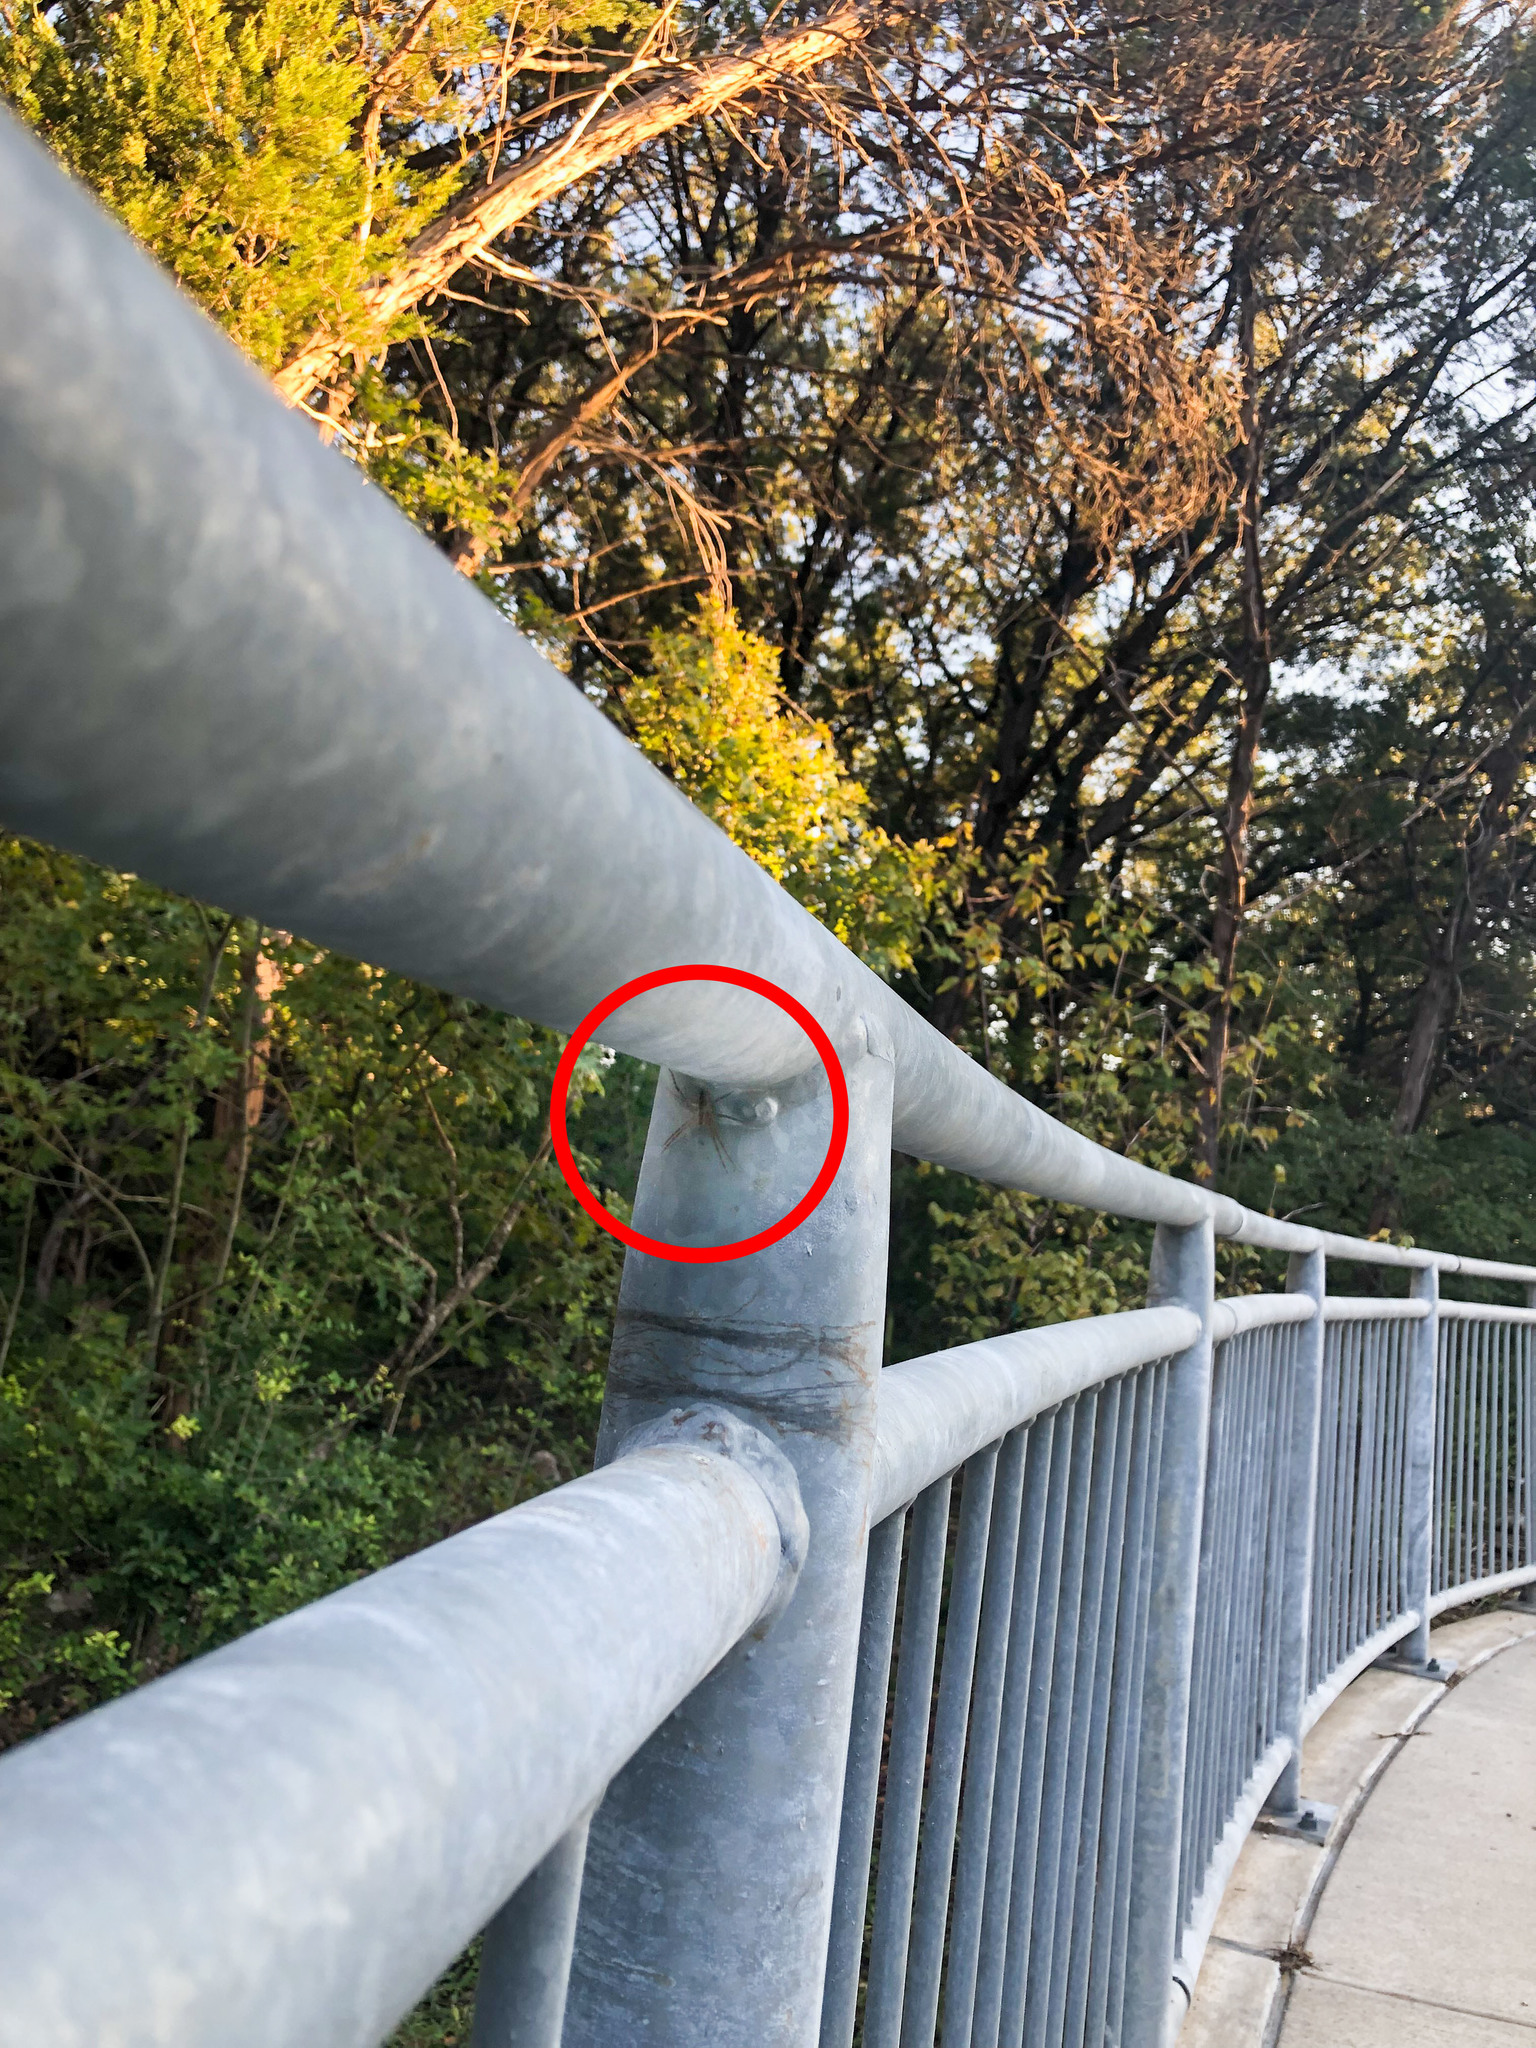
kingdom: Animalia
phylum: Arthropoda
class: Arachnida
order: Araneae
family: Pisauridae
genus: Pisaurina
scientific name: Pisaurina mira
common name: American nursery web spider
